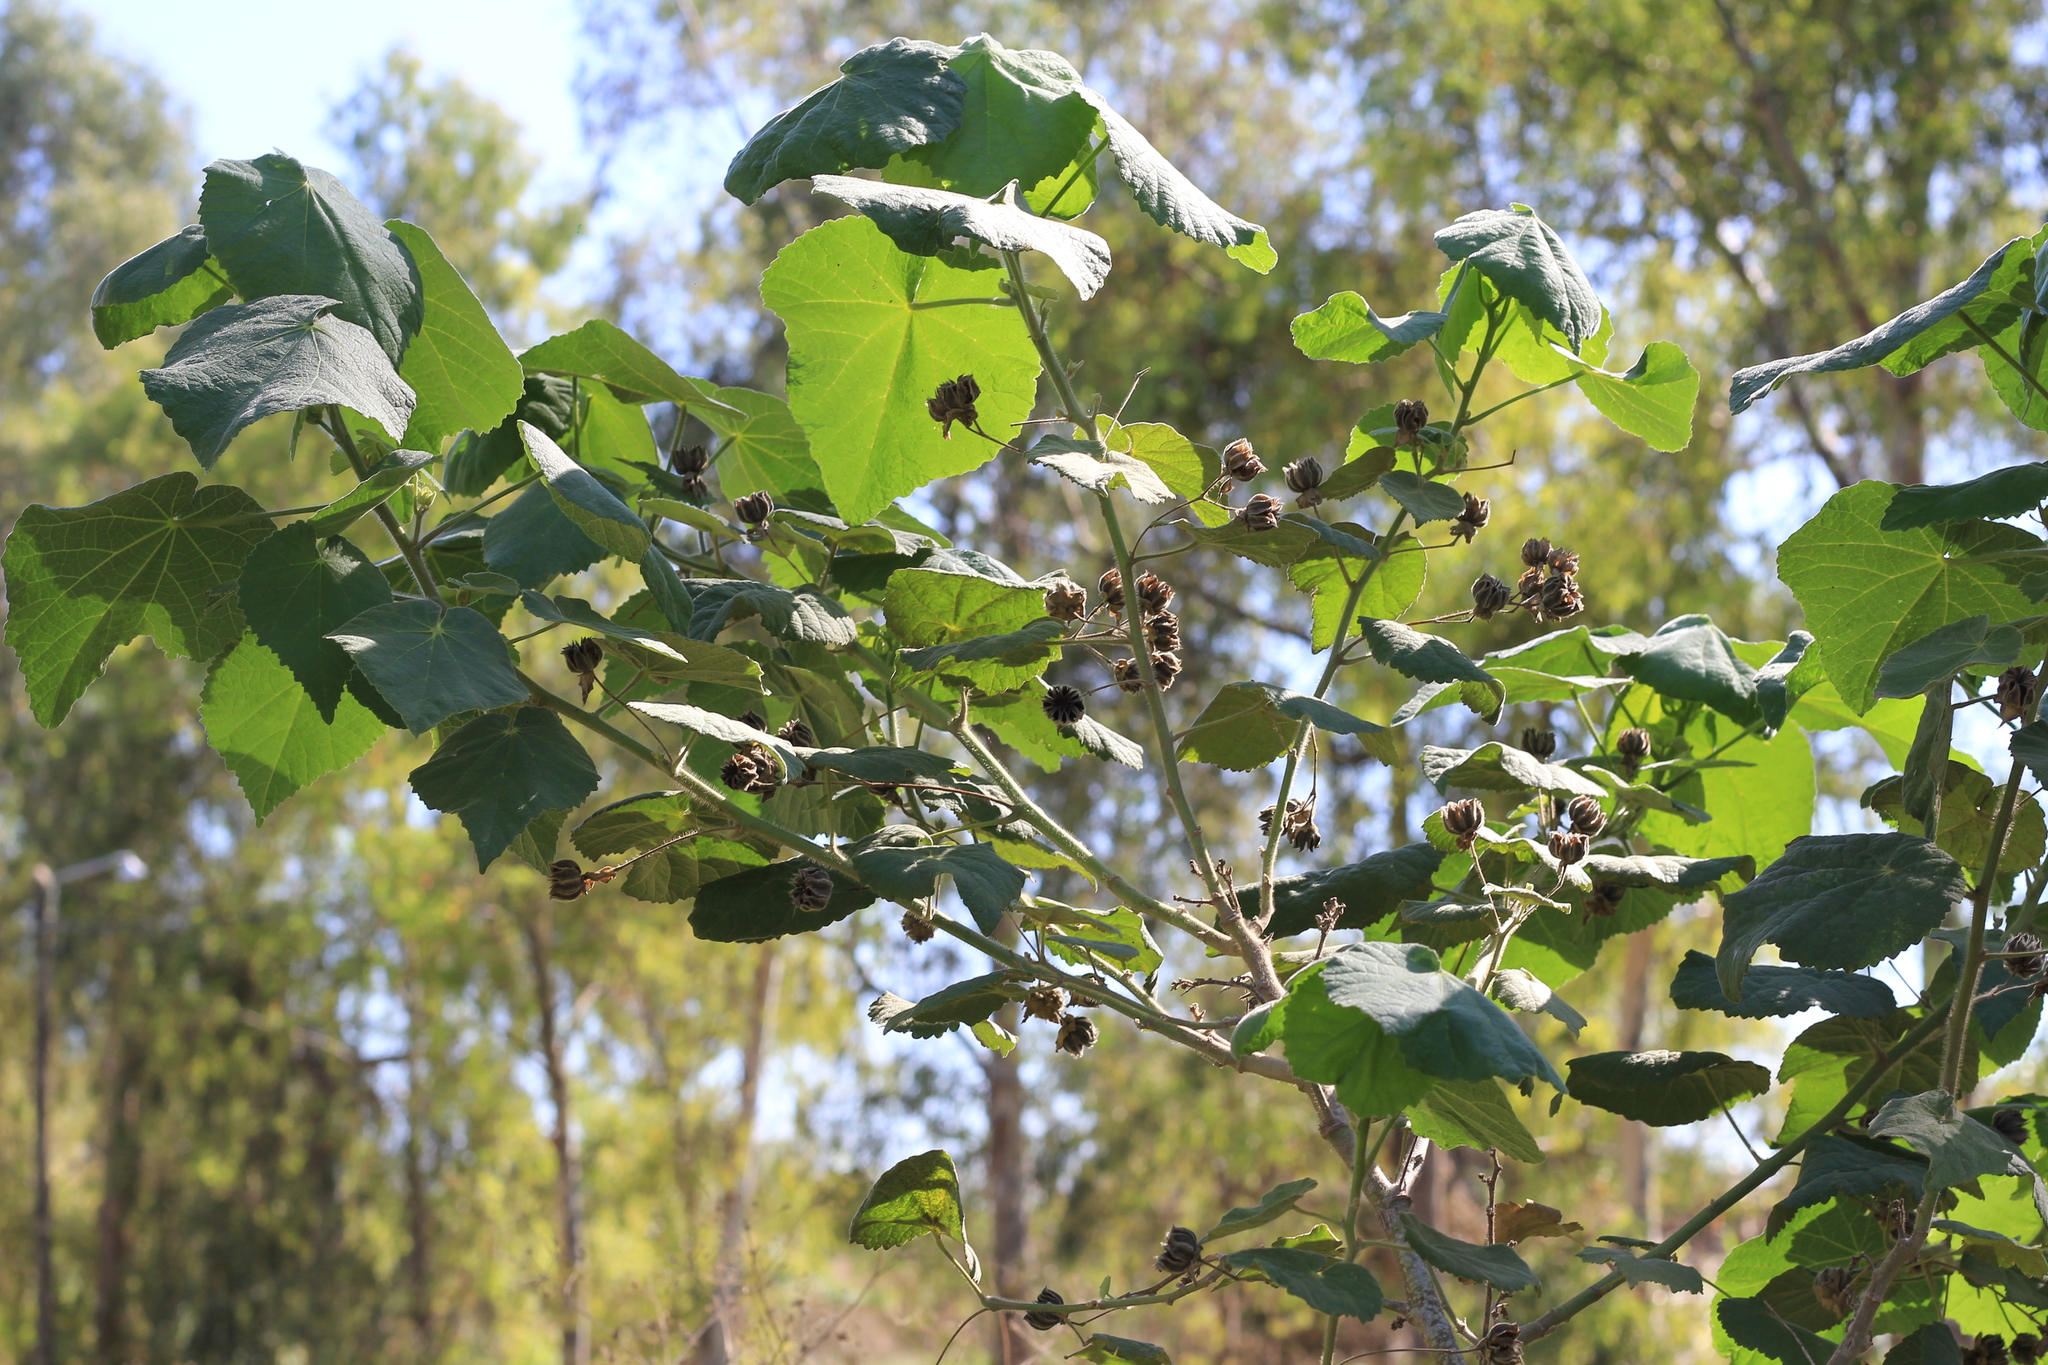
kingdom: Plantae
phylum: Tracheophyta
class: Magnoliopsida
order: Malvales
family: Malvaceae
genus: Abutilon
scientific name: Abutilon grandifolium
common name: Hairy abutilon
